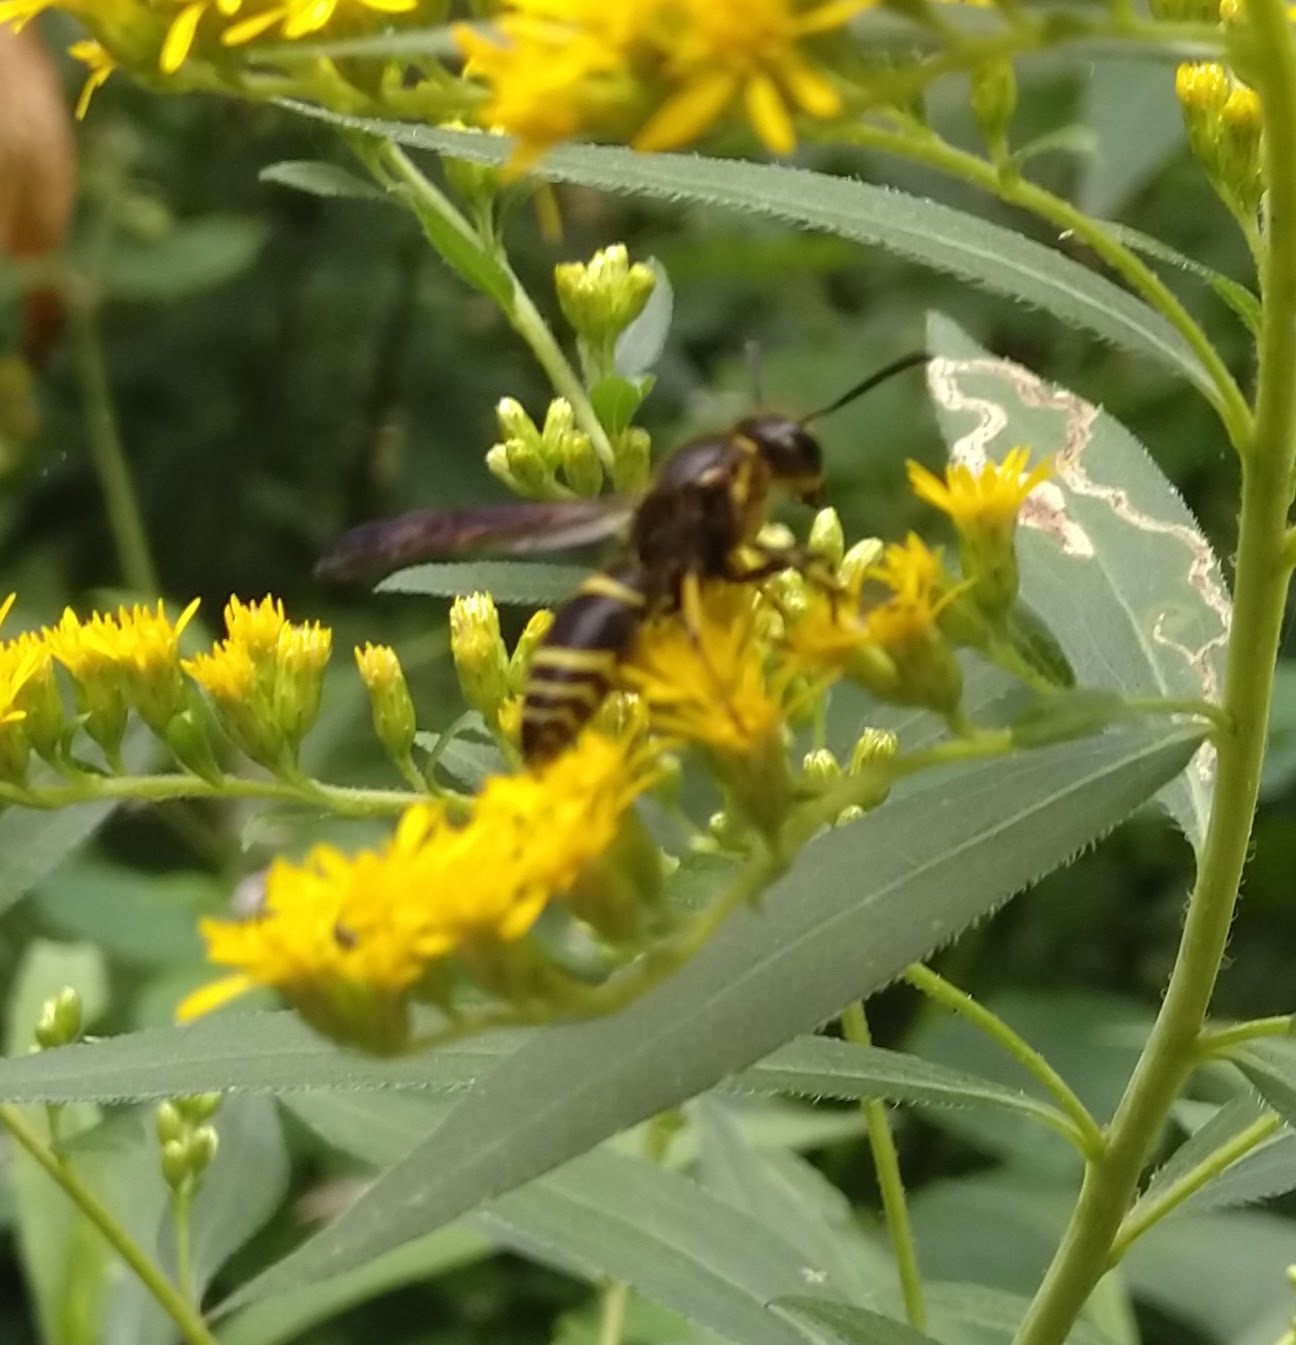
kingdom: Animalia
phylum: Arthropoda
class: Insecta
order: Hymenoptera
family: Vespidae
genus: Ancistrocerus
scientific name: Ancistrocerus
